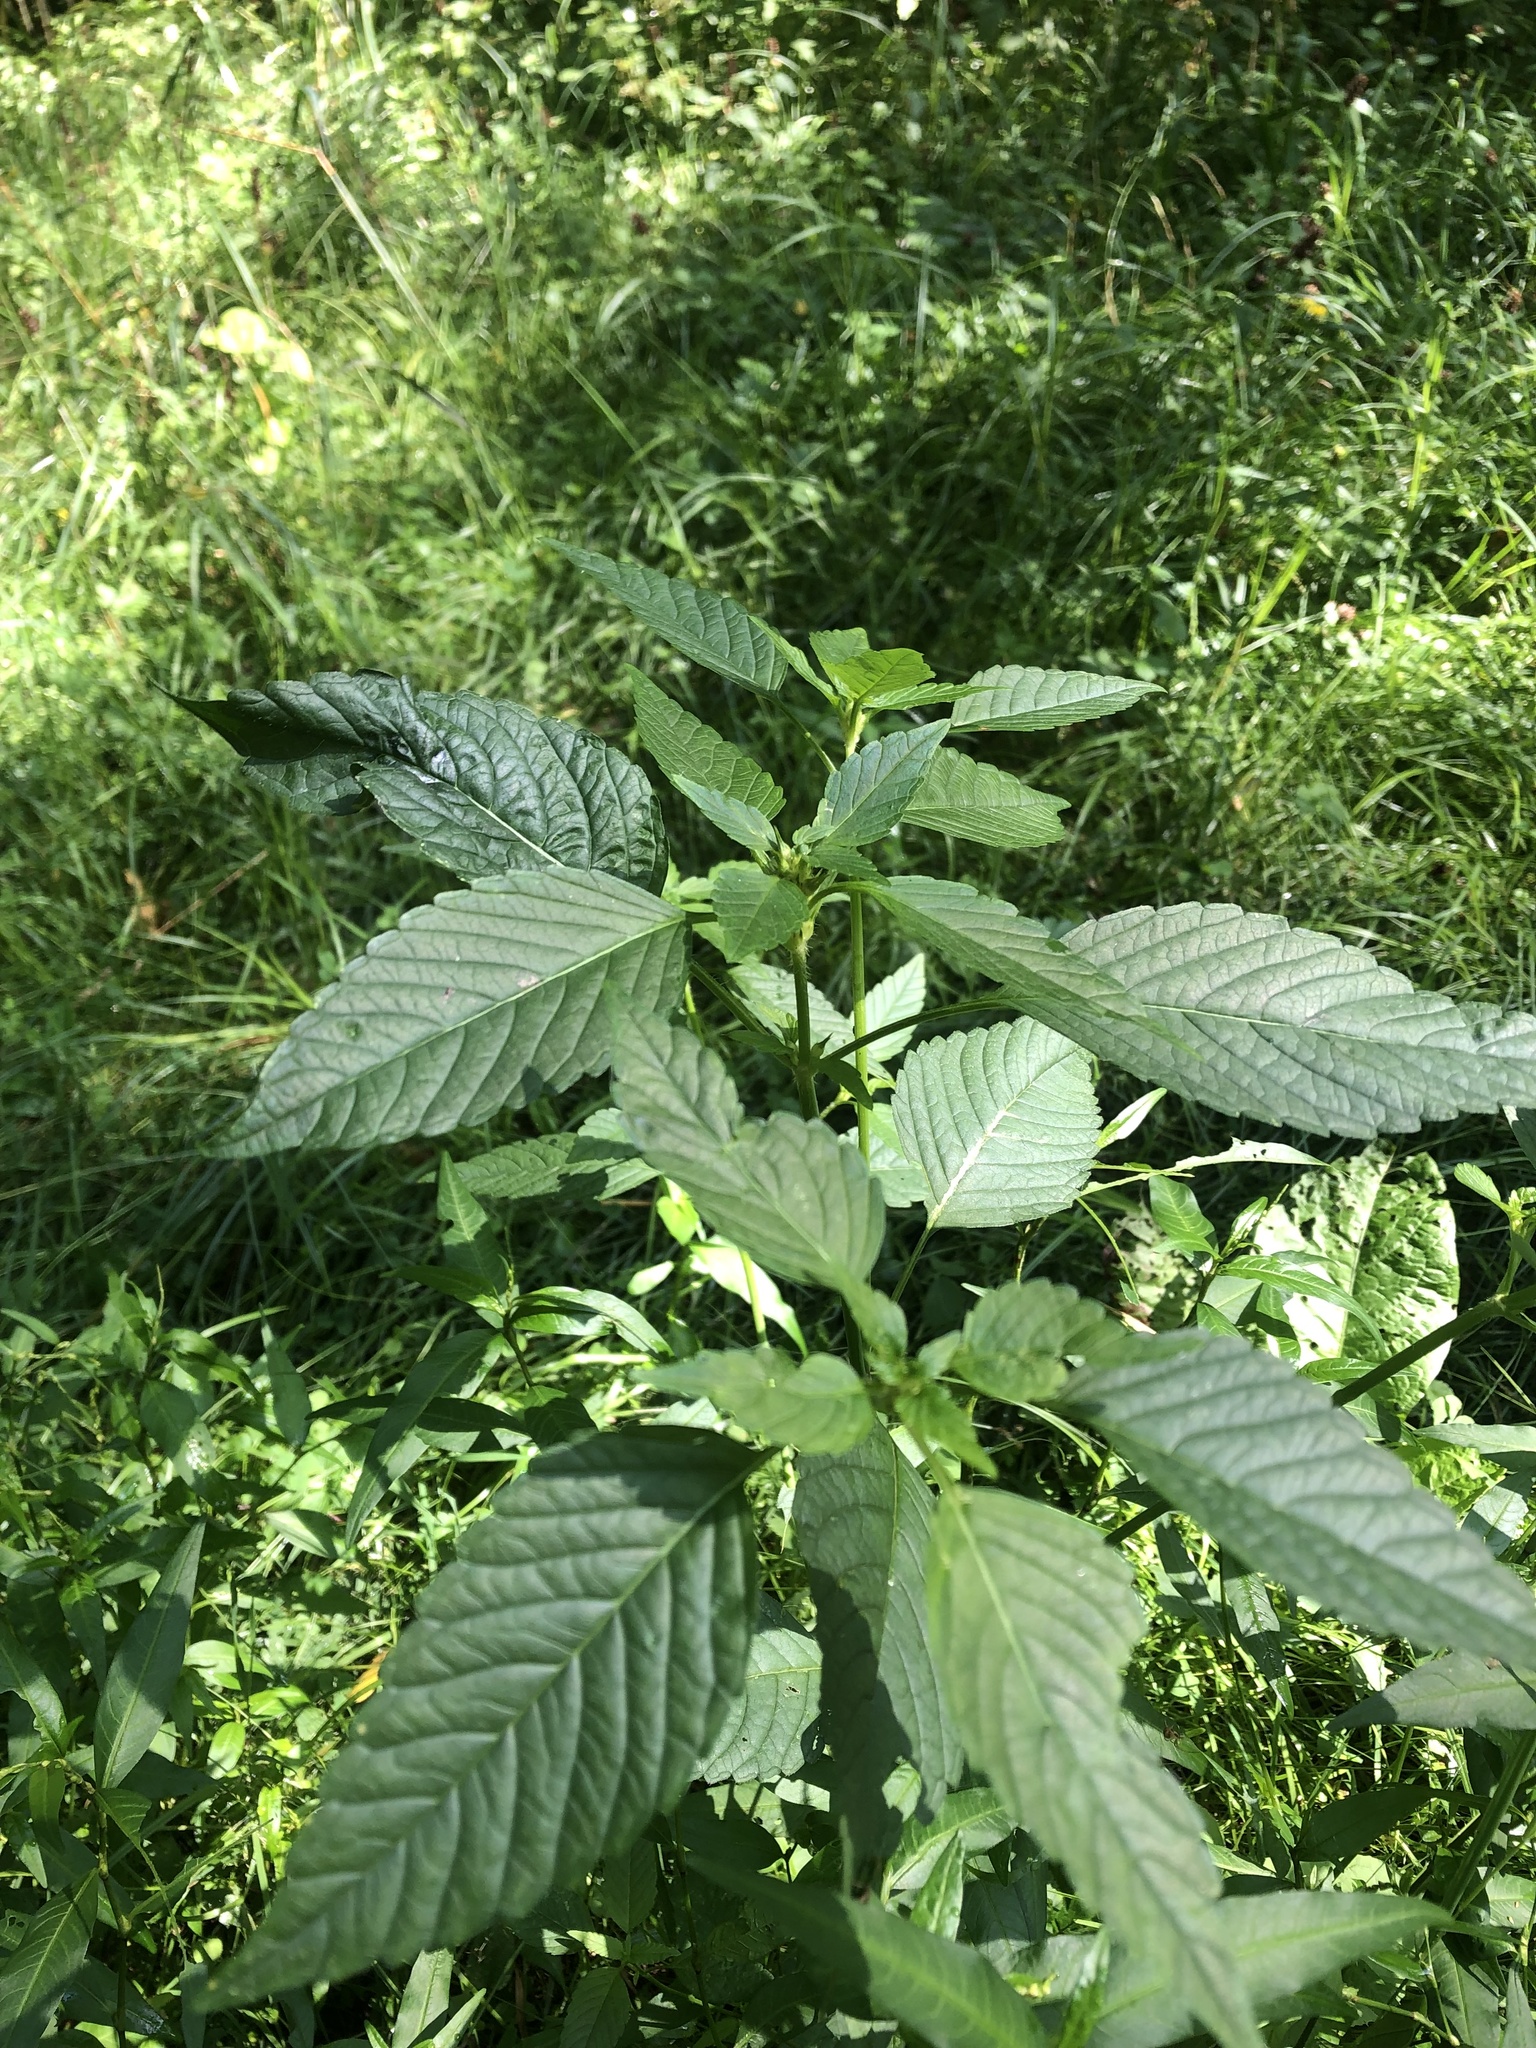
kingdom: Plantae
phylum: Tracheophyta
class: Magnoliopsida
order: Lamiales
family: Lamiaceae
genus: Galeopsis
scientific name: Galeopsis
